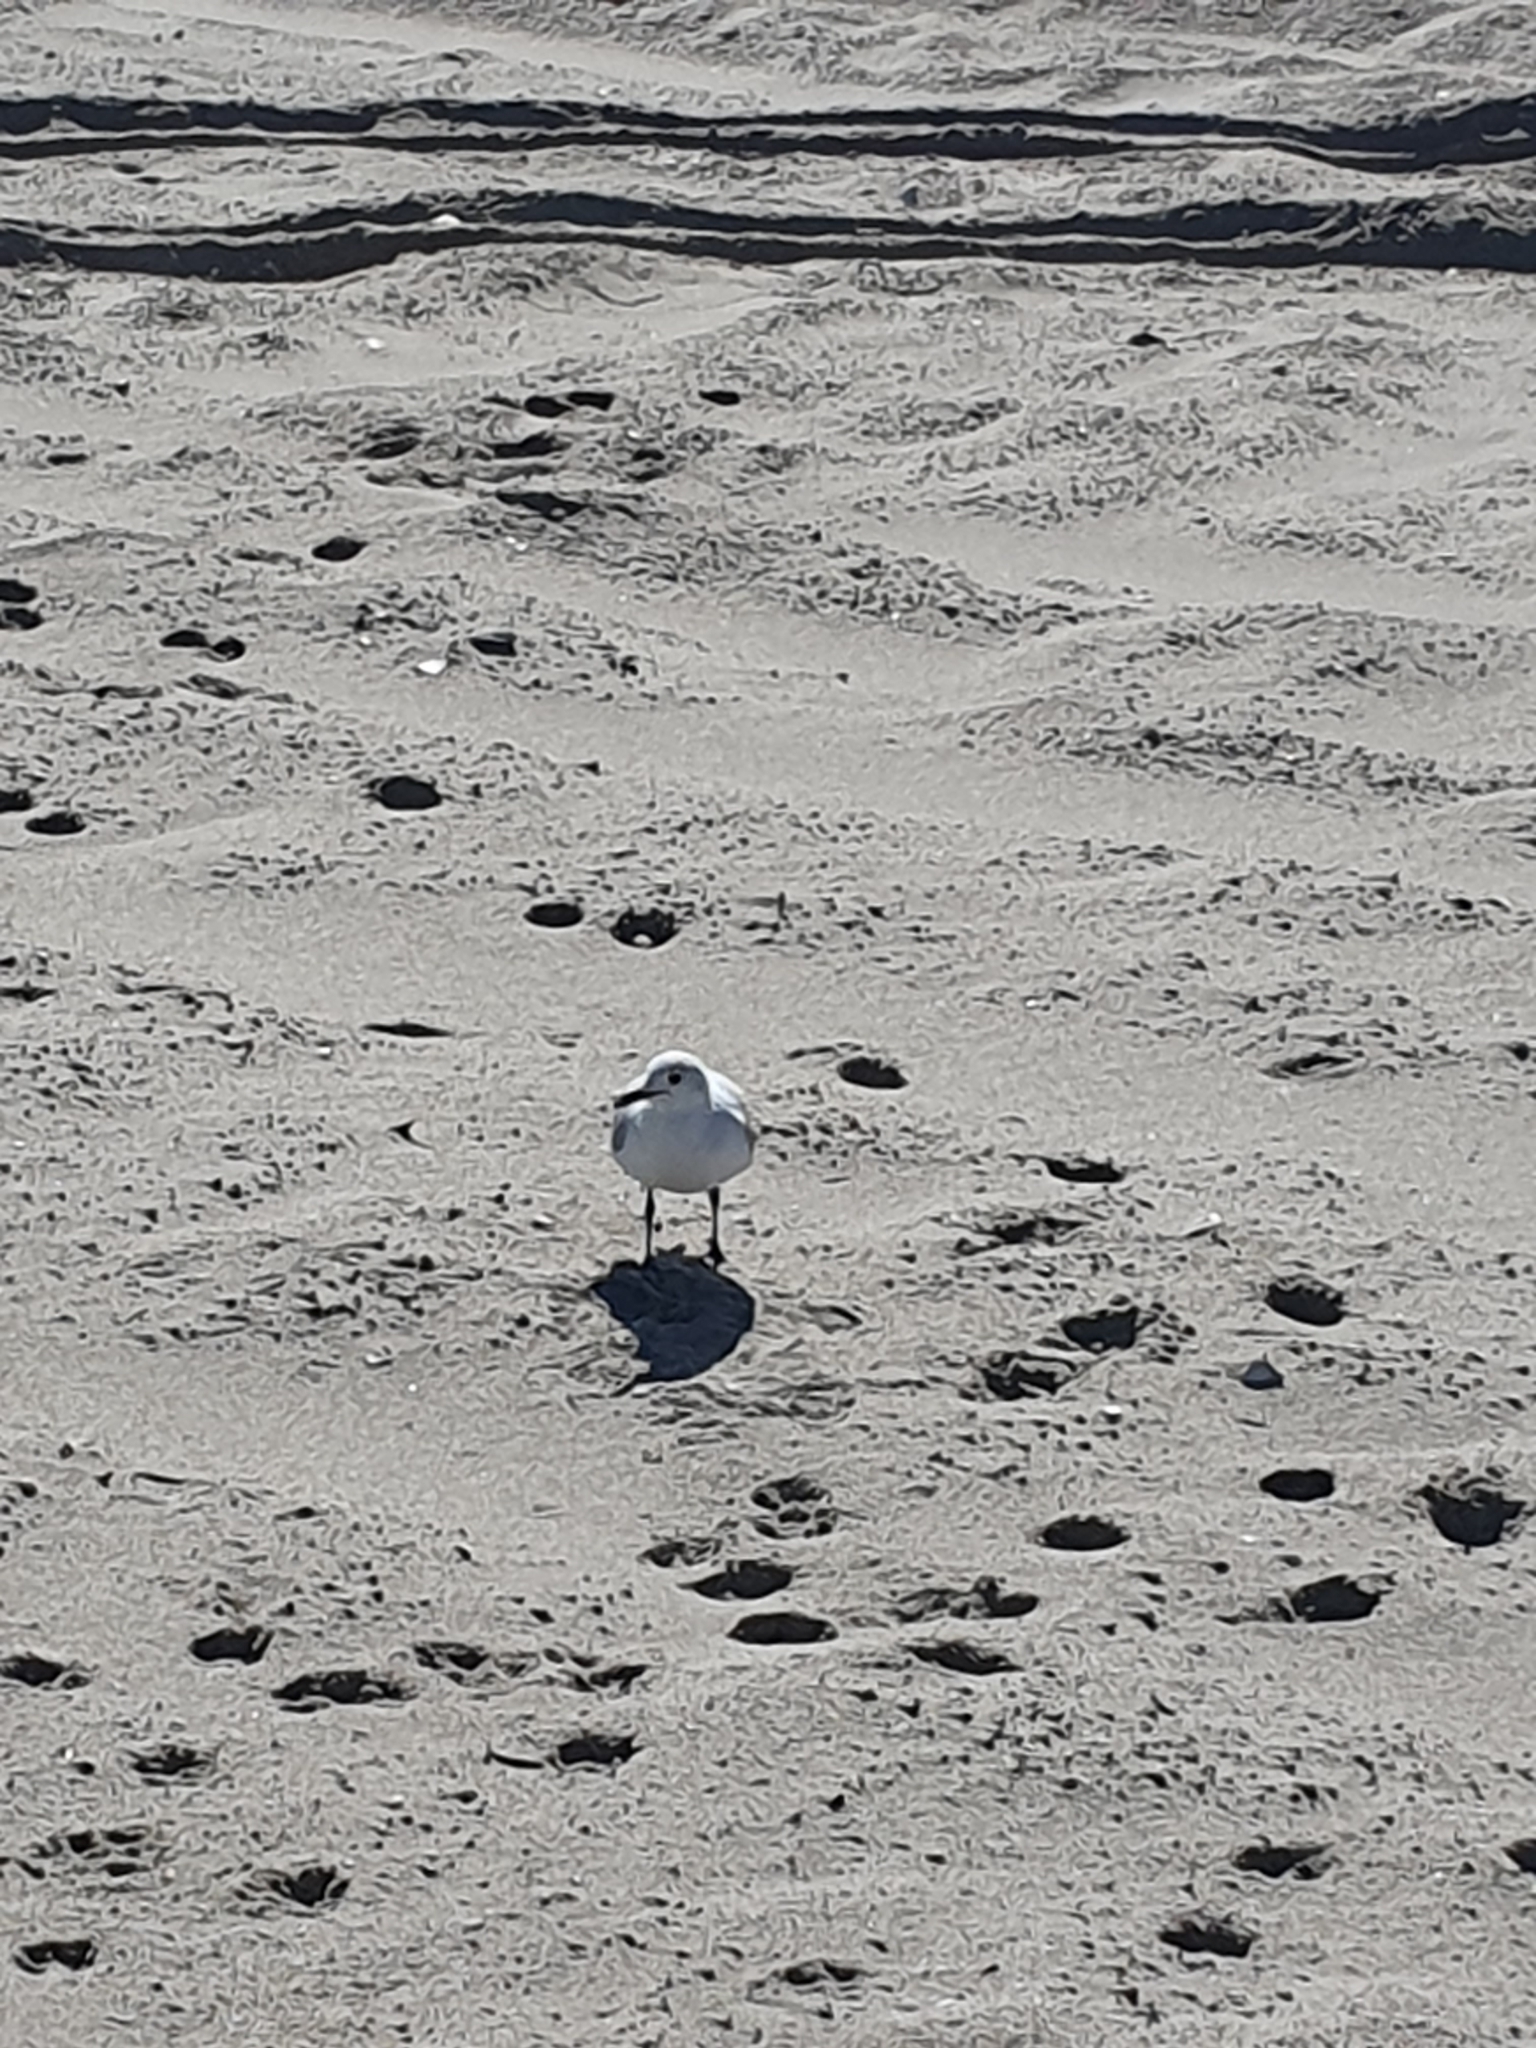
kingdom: Animalia
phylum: Chordata
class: Aves
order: Charadriiformes
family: Laridae
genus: Chroicocephalus
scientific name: Chroicocephalus hartlaubii
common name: Hartlaub's gull
